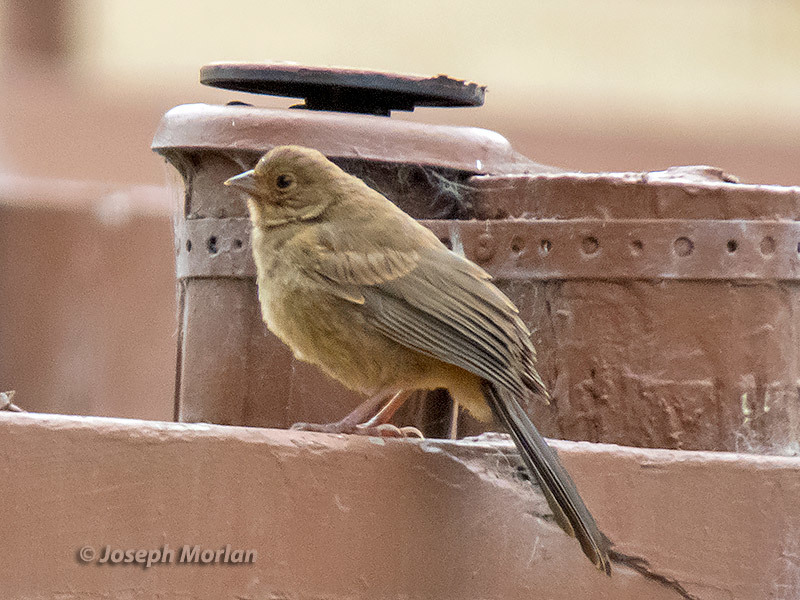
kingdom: Animalia
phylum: Chordata
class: Aves
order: Passeriformes
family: Passerellidae
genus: Melozone
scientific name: Melozone crissalis
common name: California towhee
